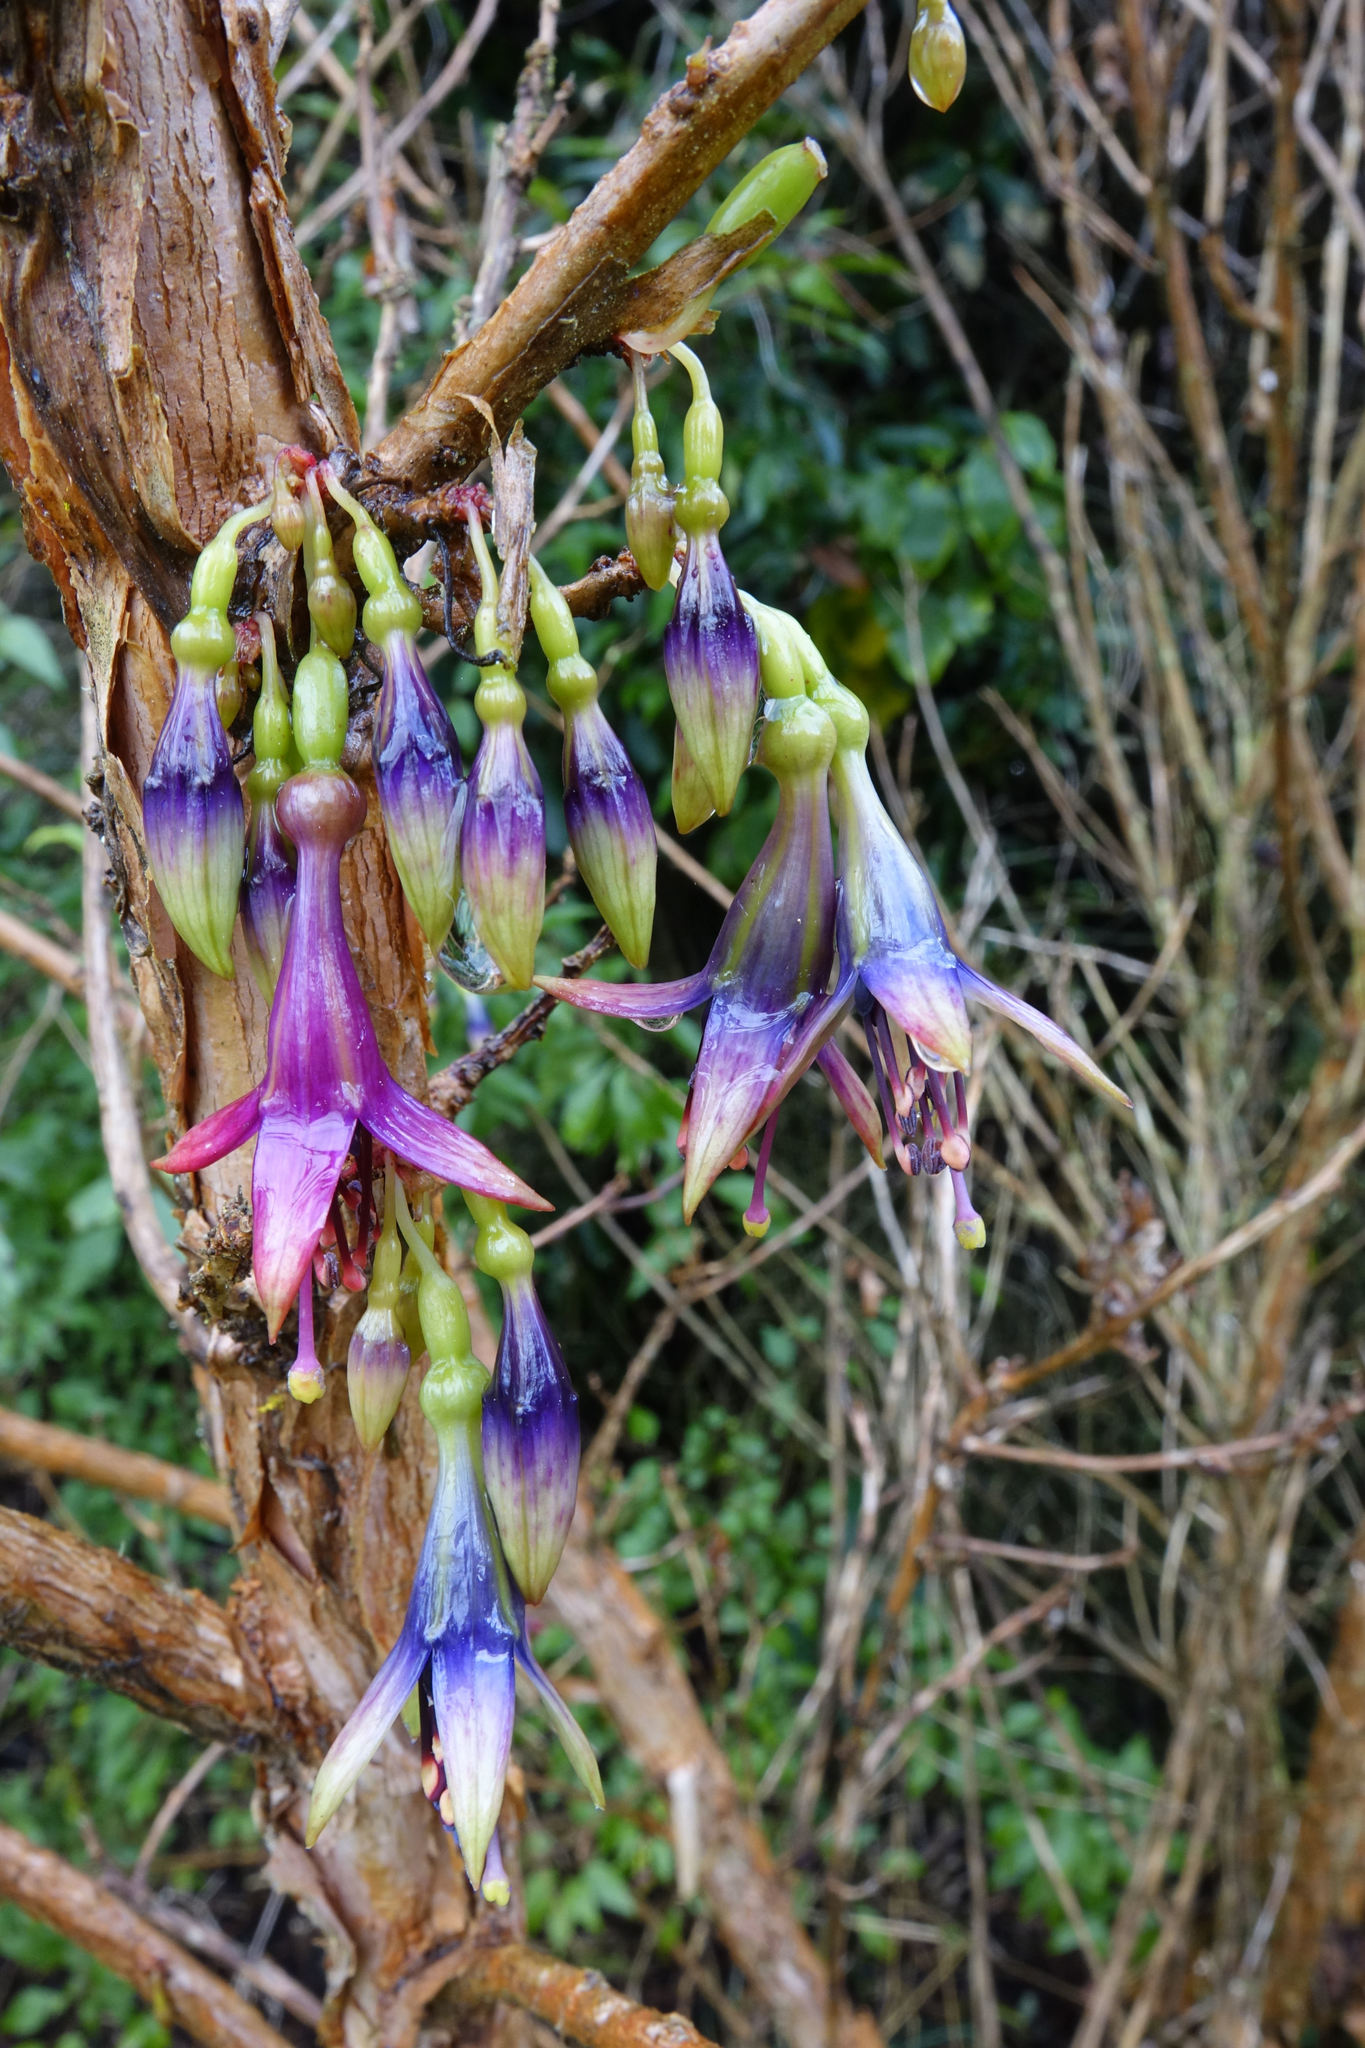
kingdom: Plantae
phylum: Tracheophyta
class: Magnoliopsida
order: Myrtales
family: Onagraceae
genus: Fuchsia
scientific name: Fuchsia excorticata
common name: Tree fuchsia
